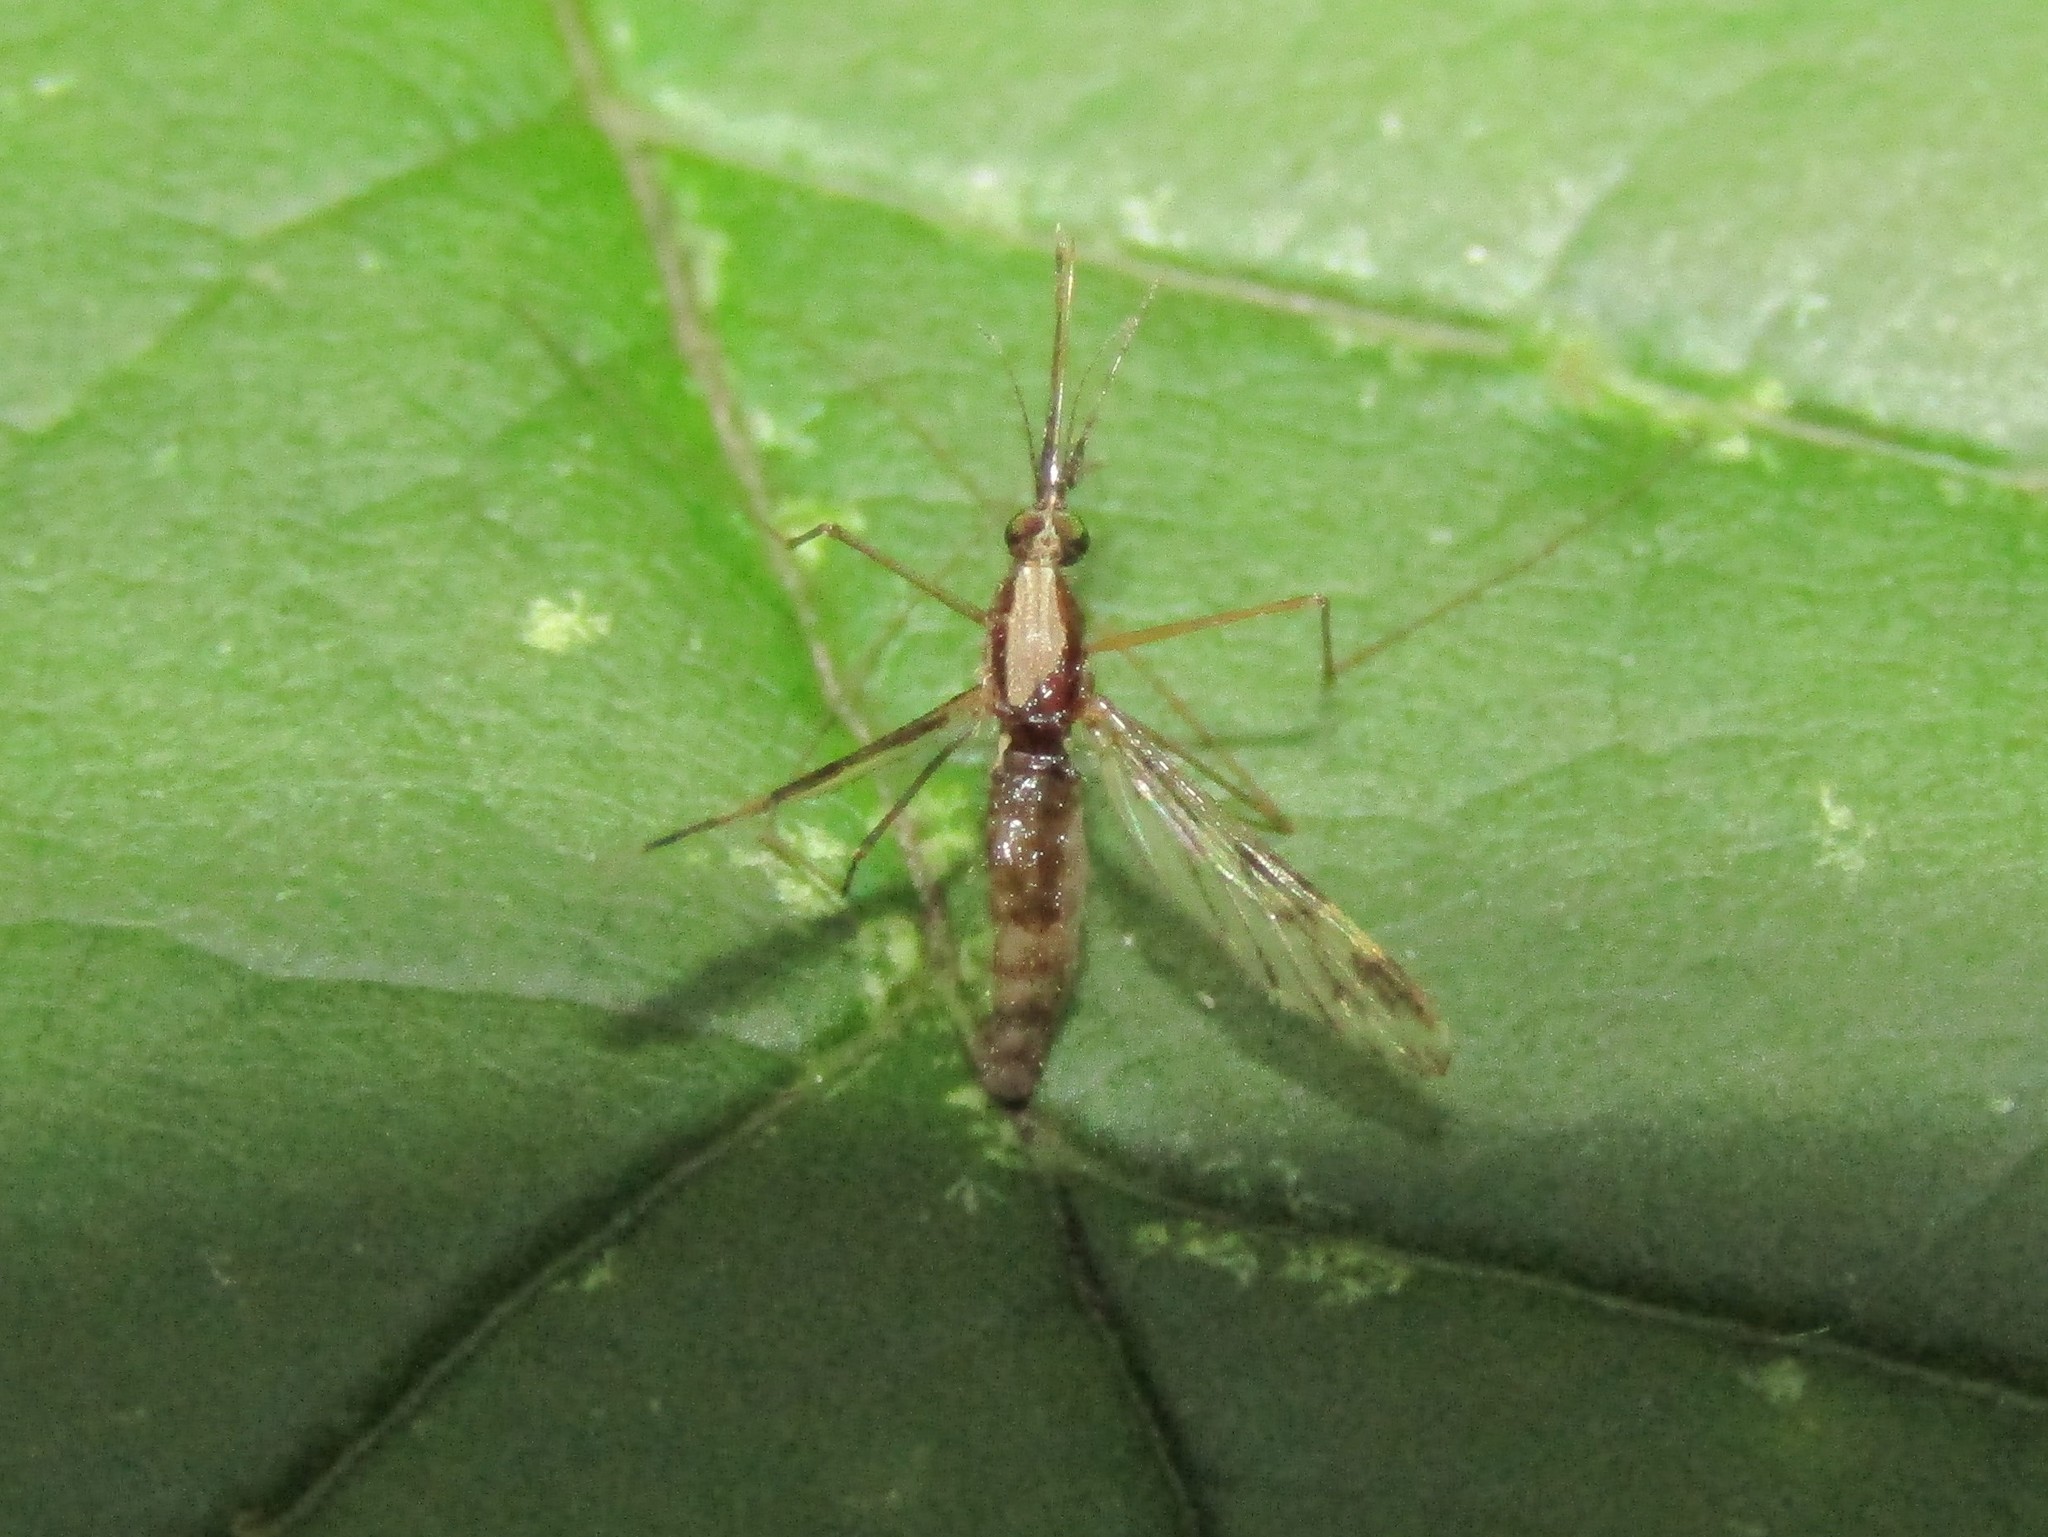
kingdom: Animalia
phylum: Arthropoda
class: Insecta
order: Diptera
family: Culicidae
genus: Anopheles
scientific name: Anopheles punctipennis
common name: Woodland malaria mosquito
